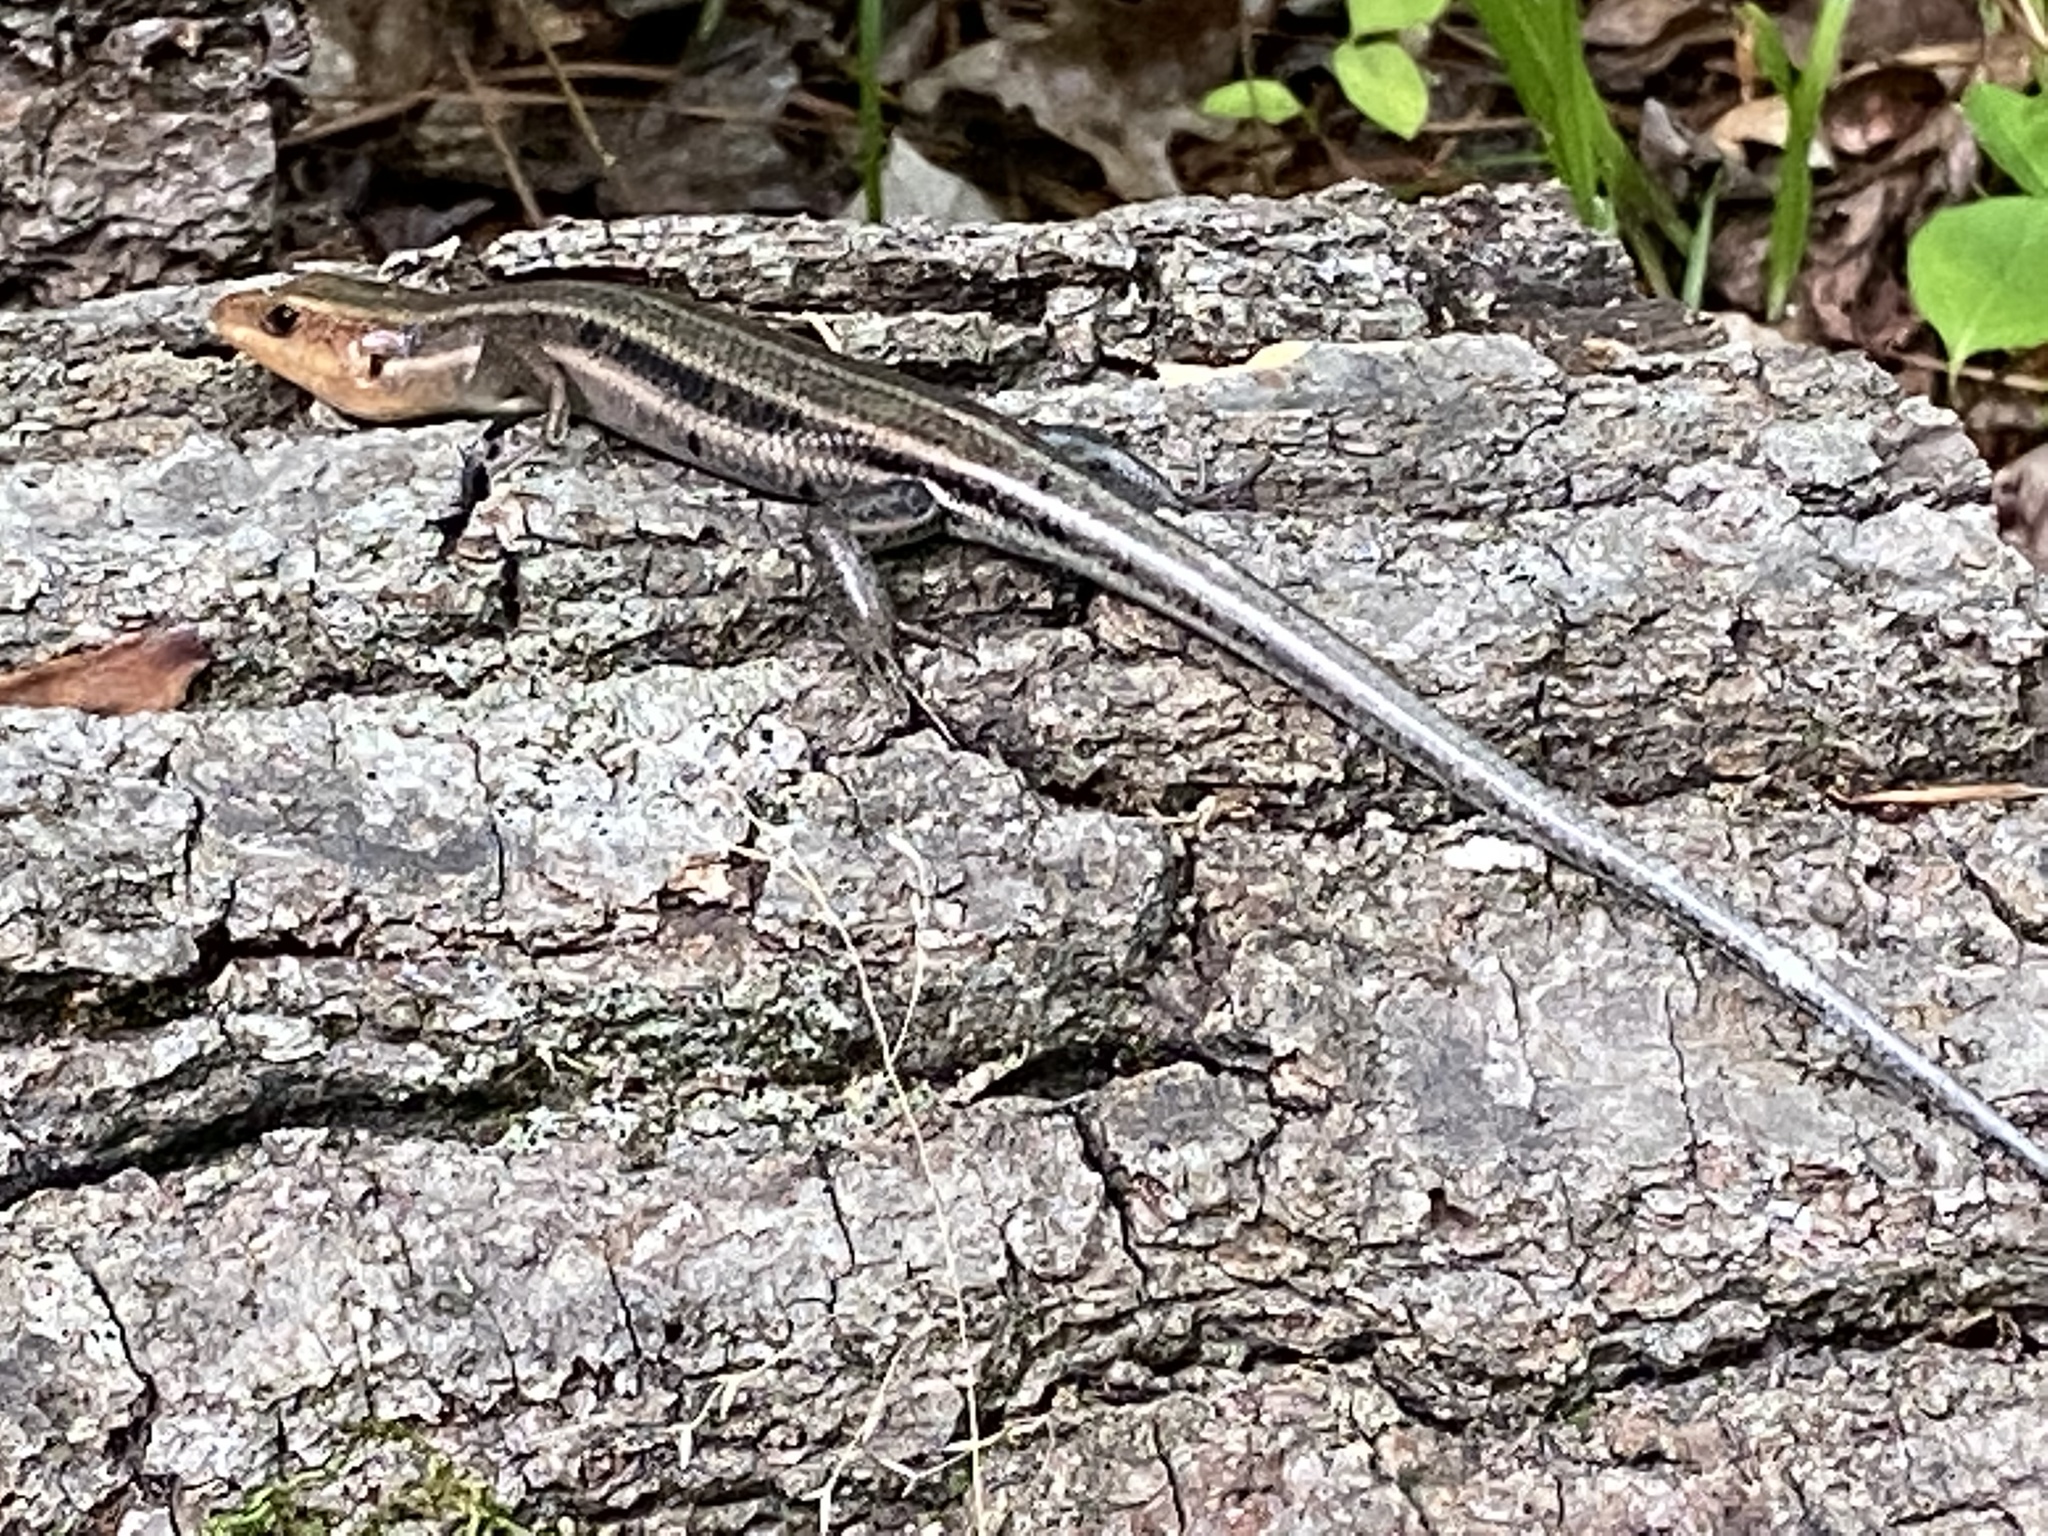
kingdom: Animalia
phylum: Chordata
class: Squamata
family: Scincidae
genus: Plestiodon
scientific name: Plestiodon fasciatus
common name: Five-lined skink
